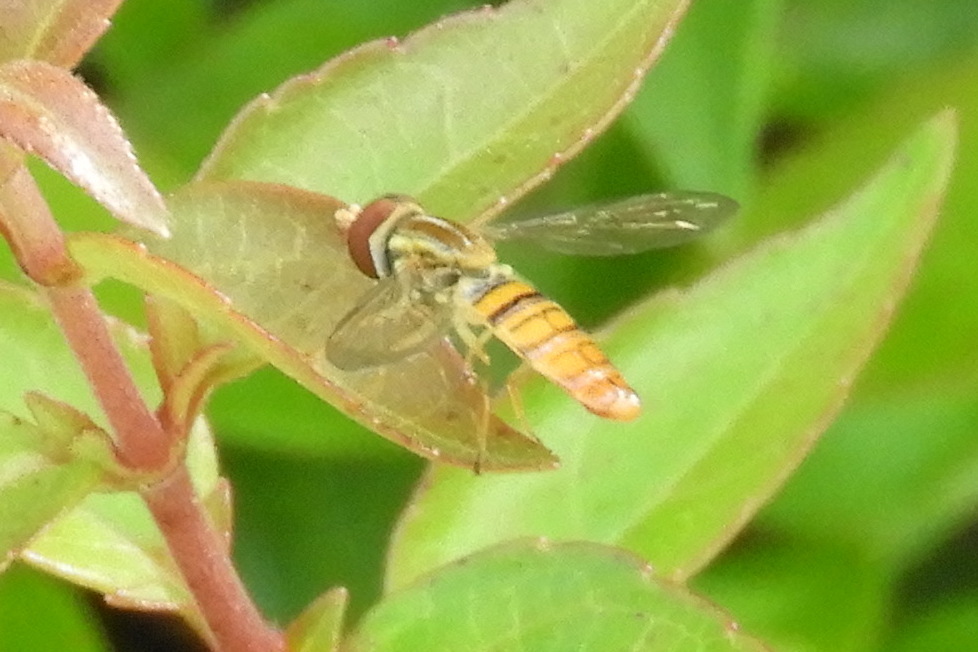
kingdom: Animalia
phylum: Arthropoda
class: Insecta
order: Diptera
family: Syrphidae
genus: Toxomerus
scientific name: Toxomerus politus
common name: Maize calligrapher
